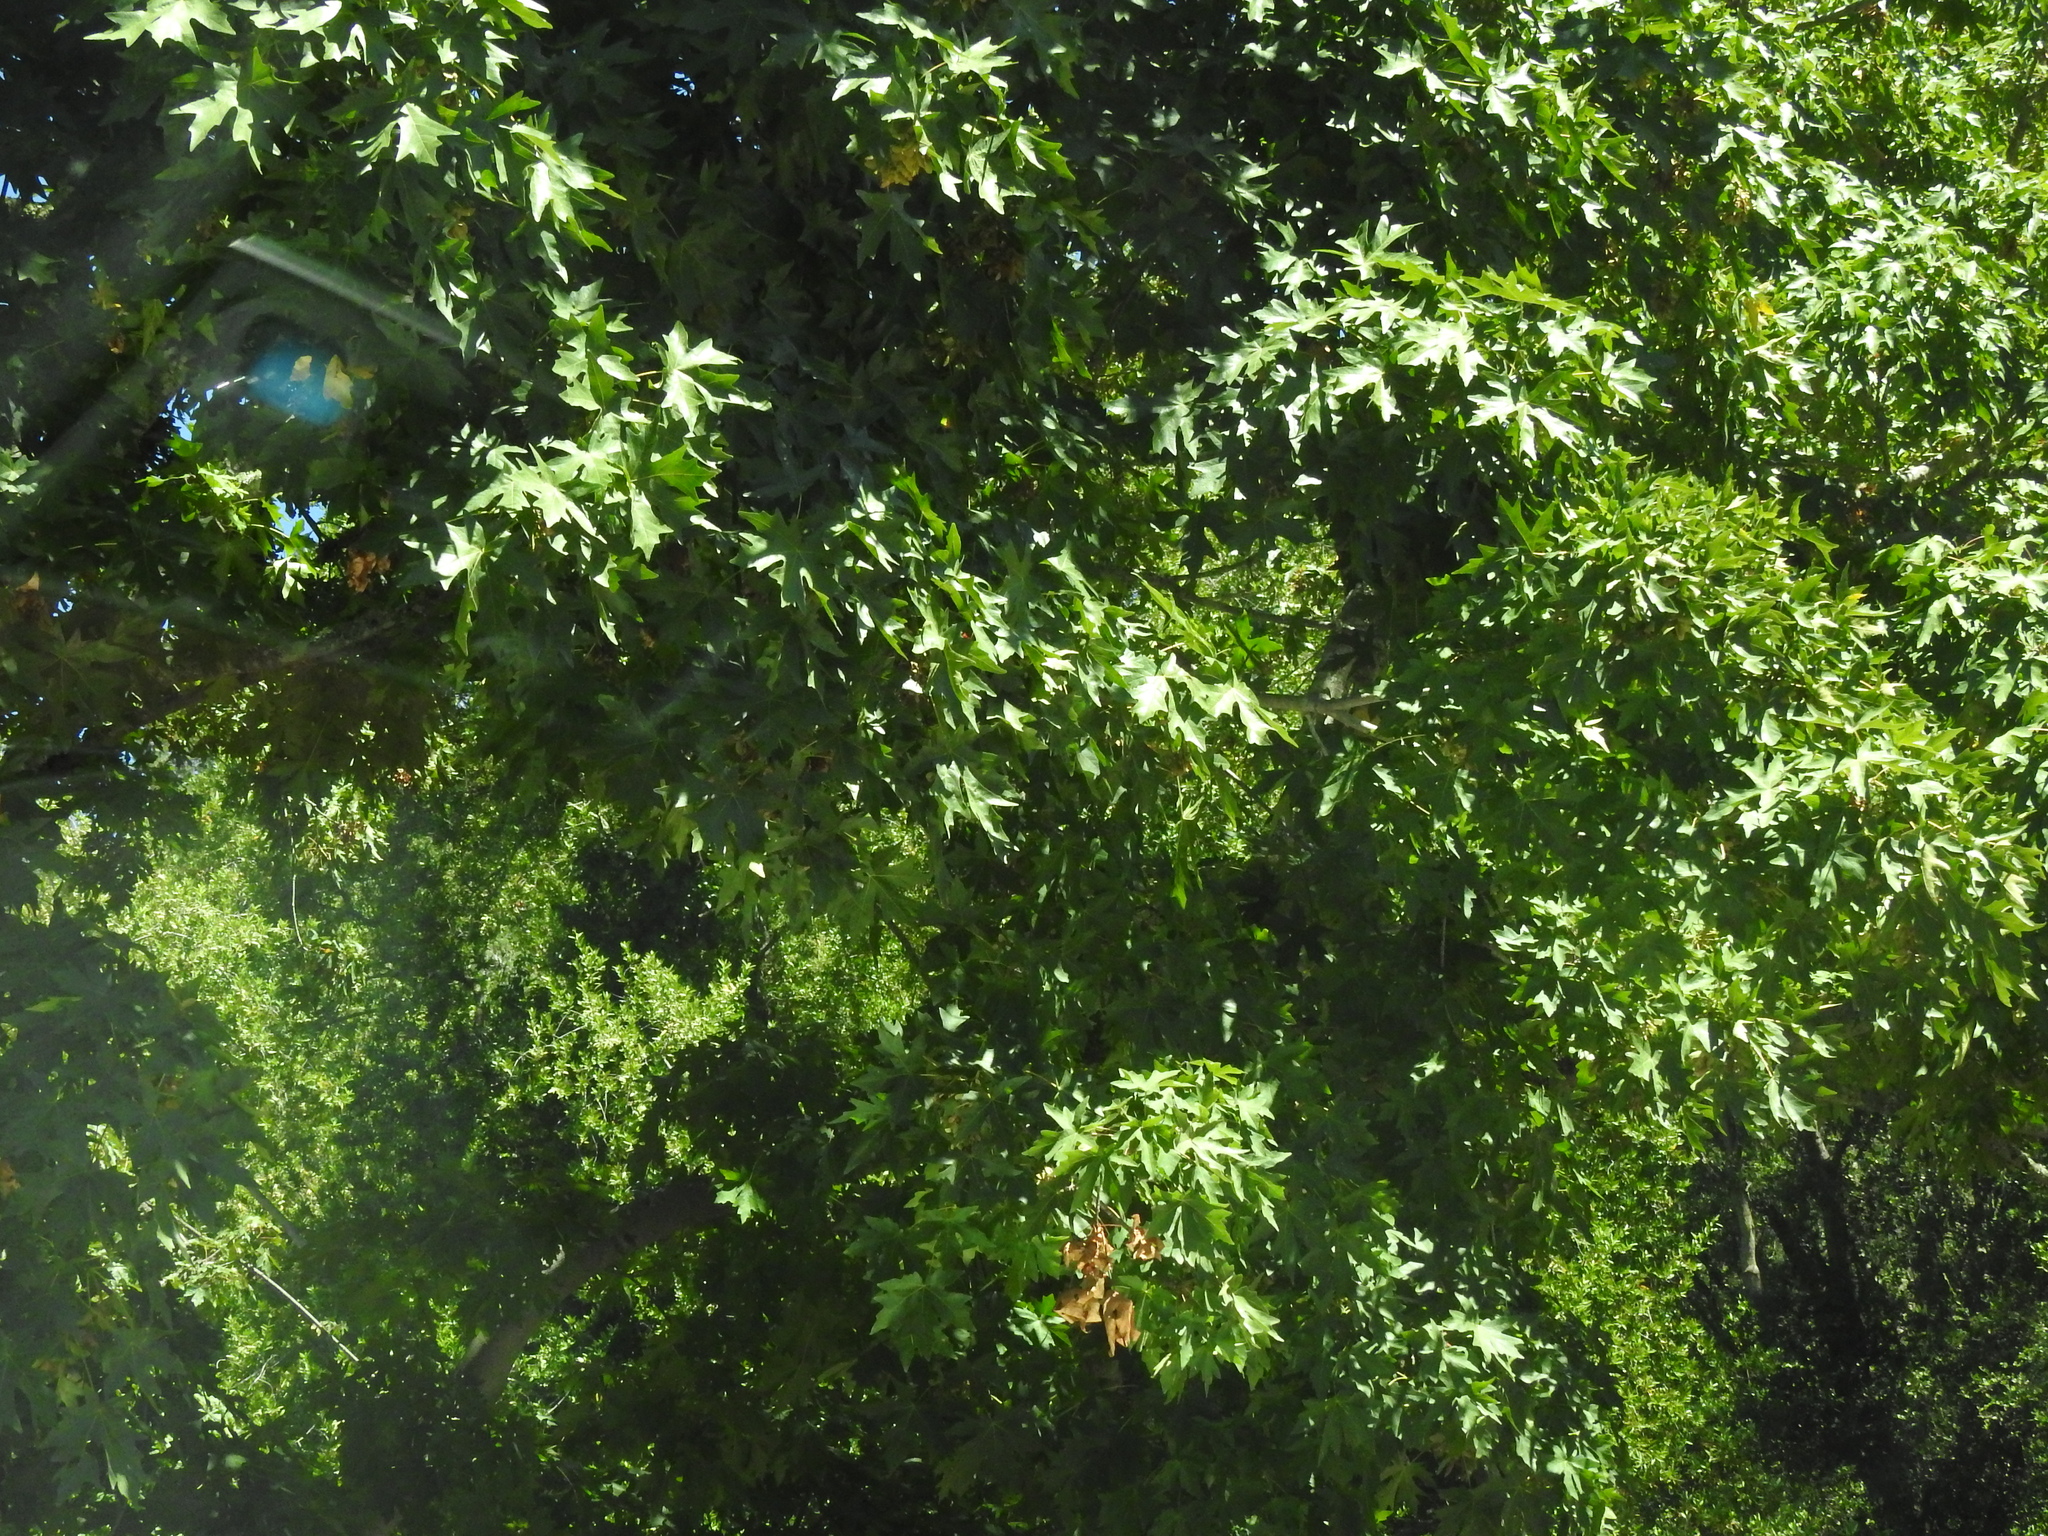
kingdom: Plantae
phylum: Tracheophyta
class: Magnoliopsida
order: Sapindales
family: Sapindaceae
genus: Acer
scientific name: Acer macrophyllum
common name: Oregon maple
